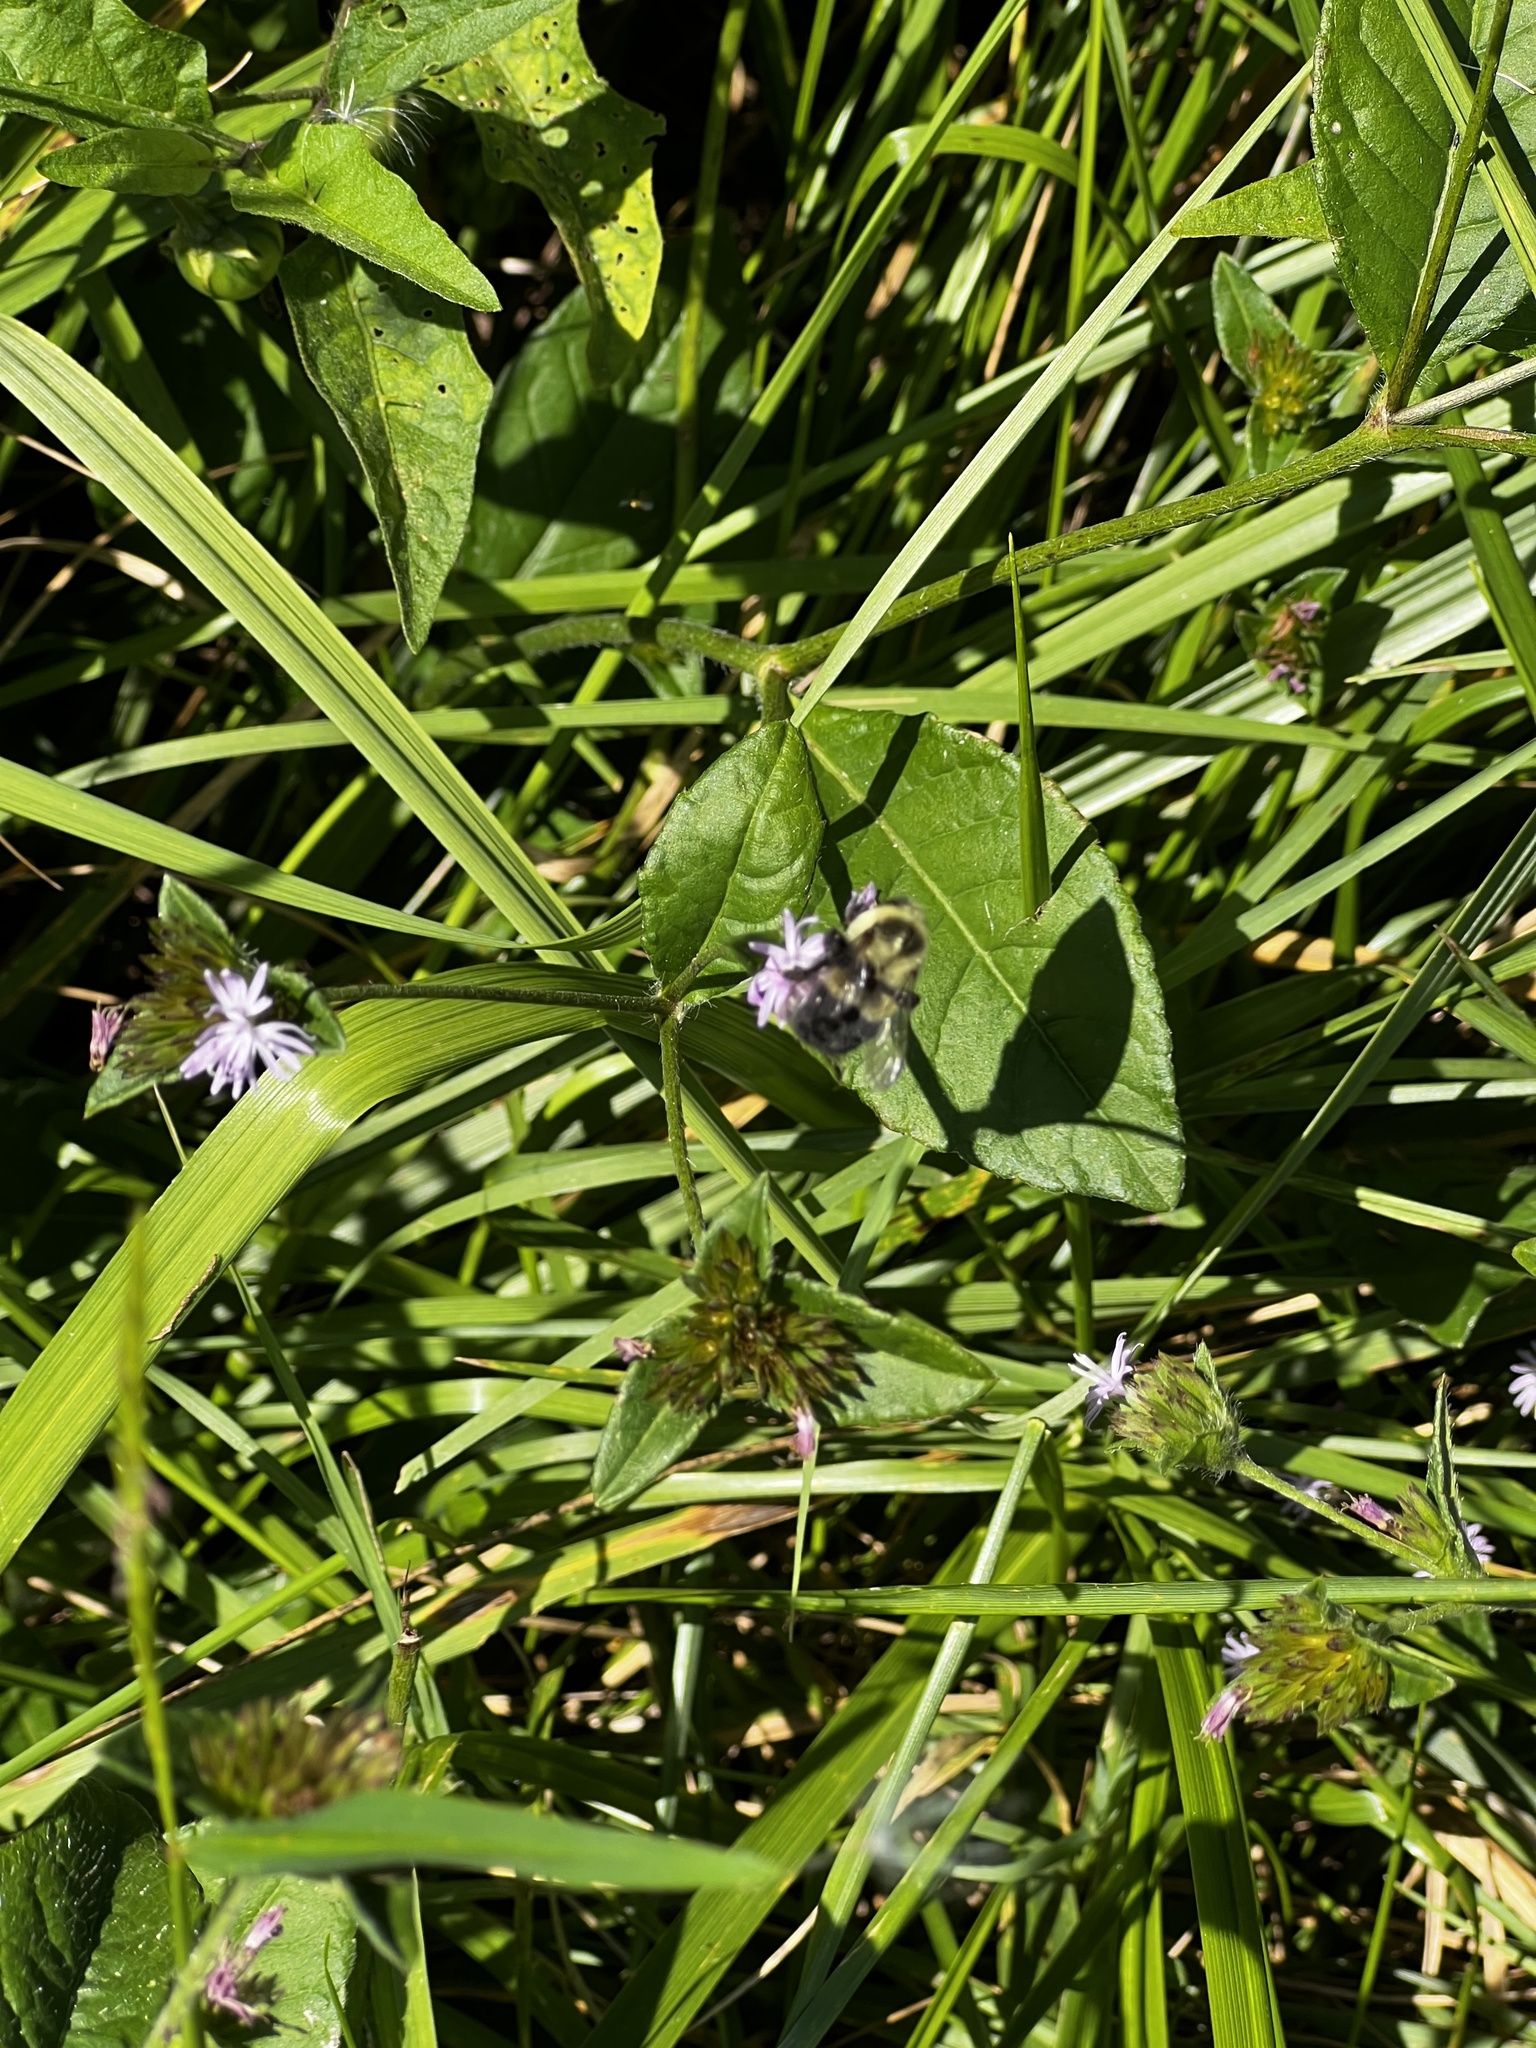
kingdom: Animalia
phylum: Arthropoda
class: Insecta
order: Hymenoptera
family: Apidae
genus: Bombus
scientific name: Bombus impatiens
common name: Common eastern bumble bee
